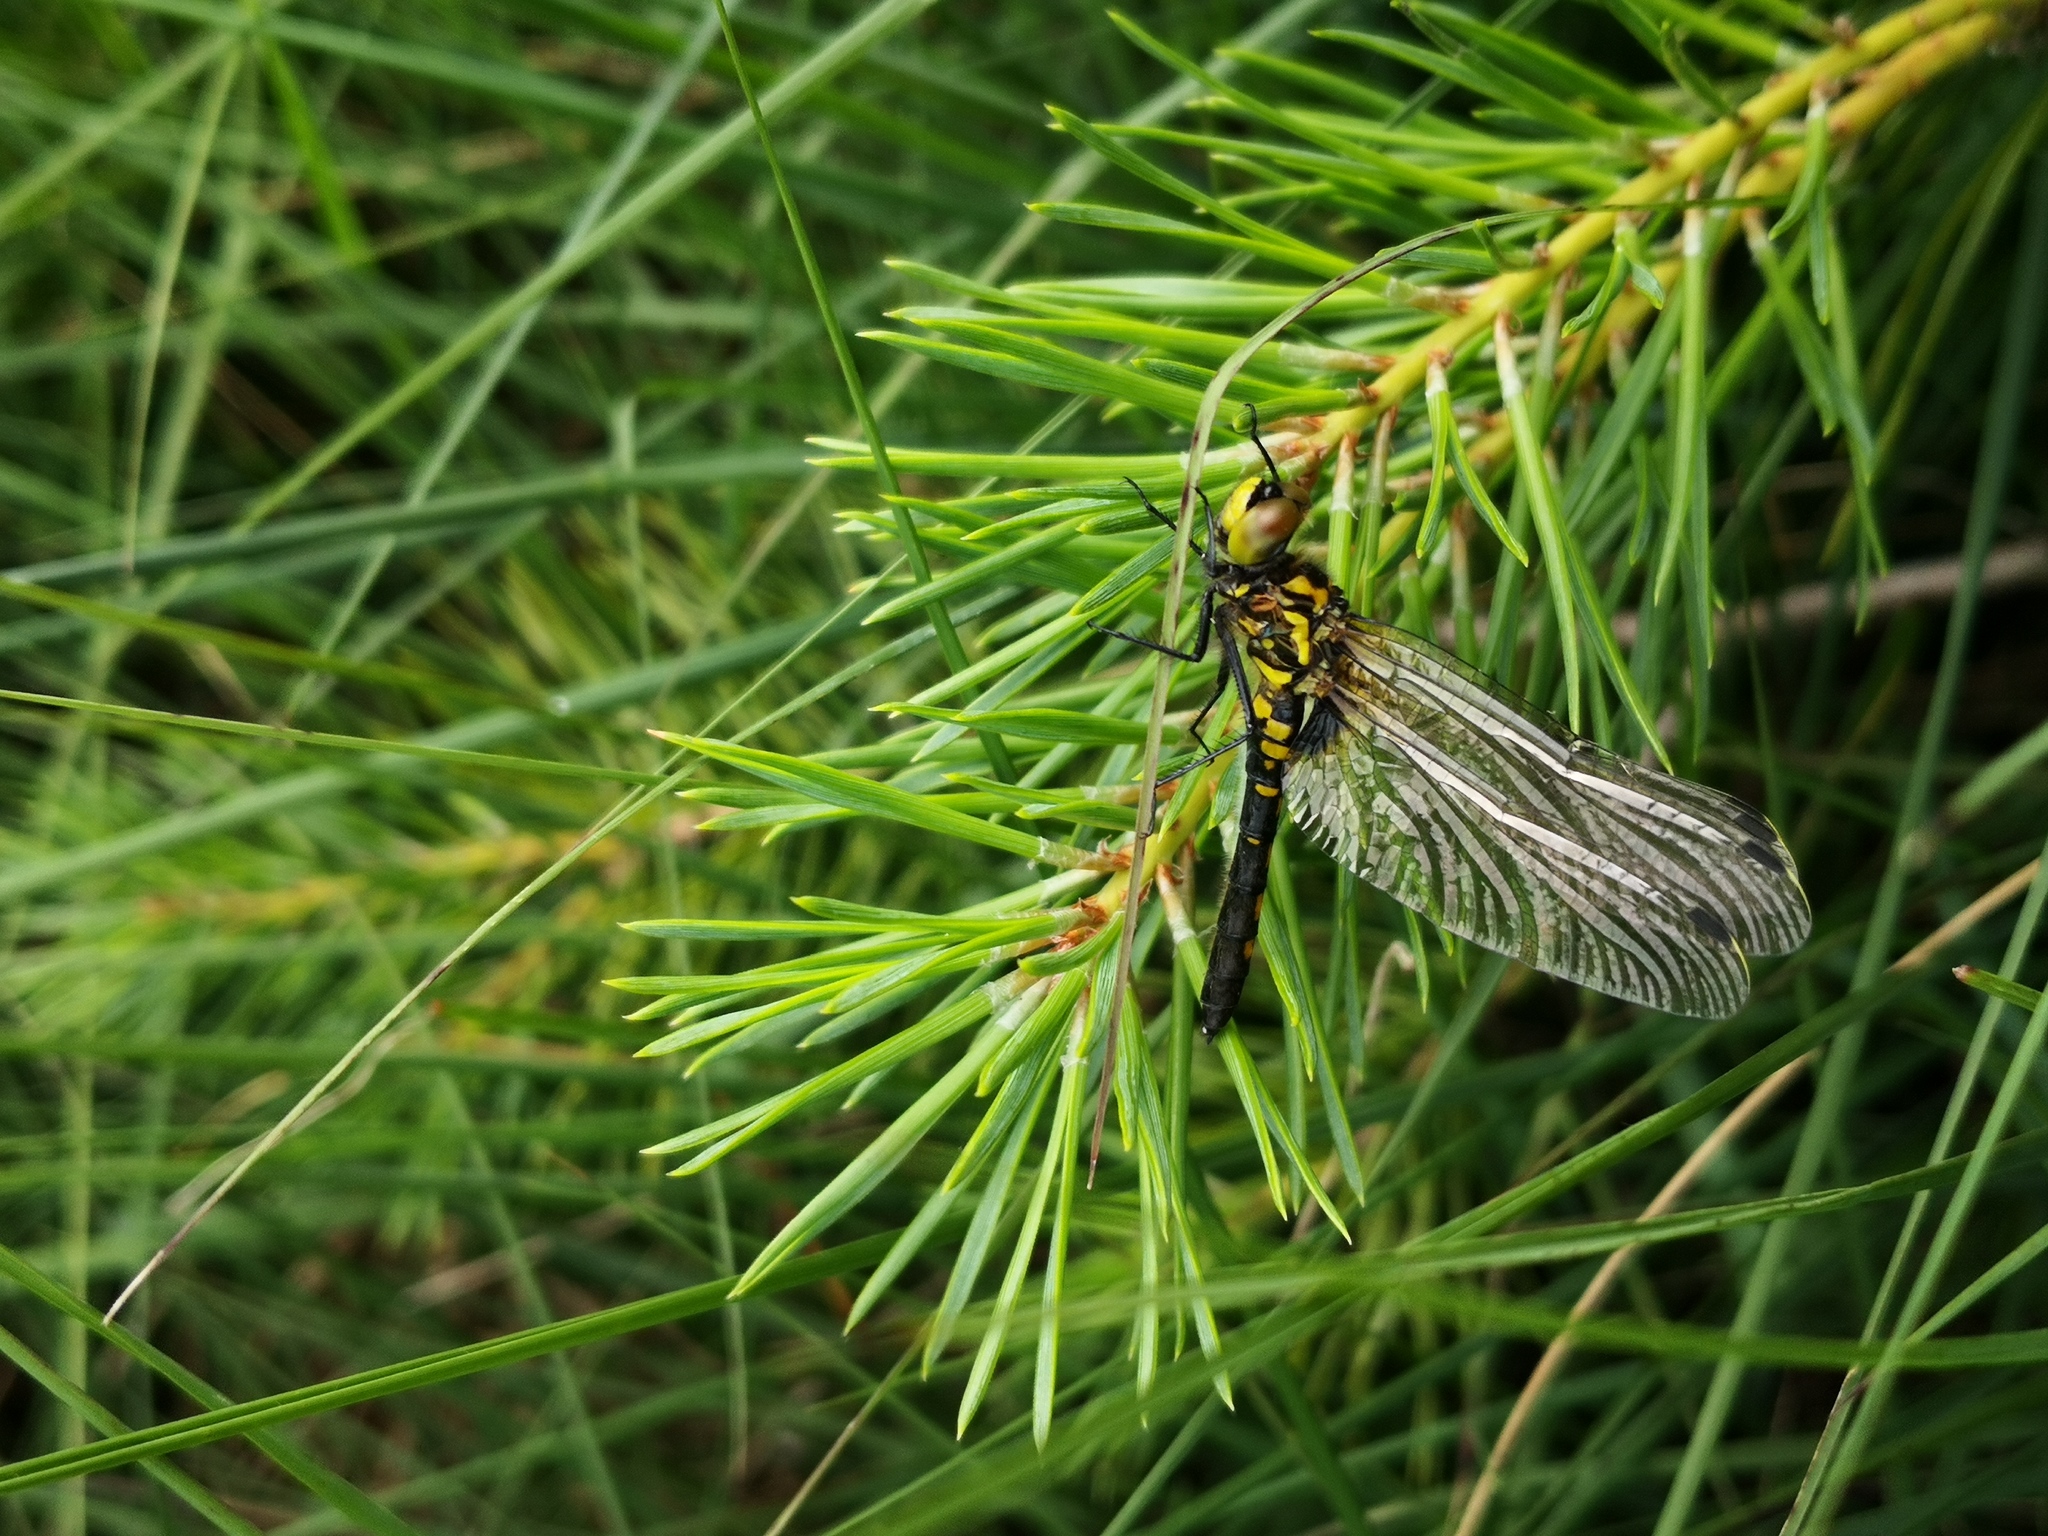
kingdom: Animalia
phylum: Arthropoda
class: Insecta
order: Odonata
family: Libellulidae
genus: Sympetrum
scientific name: Sympetrum danae
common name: Black darter
